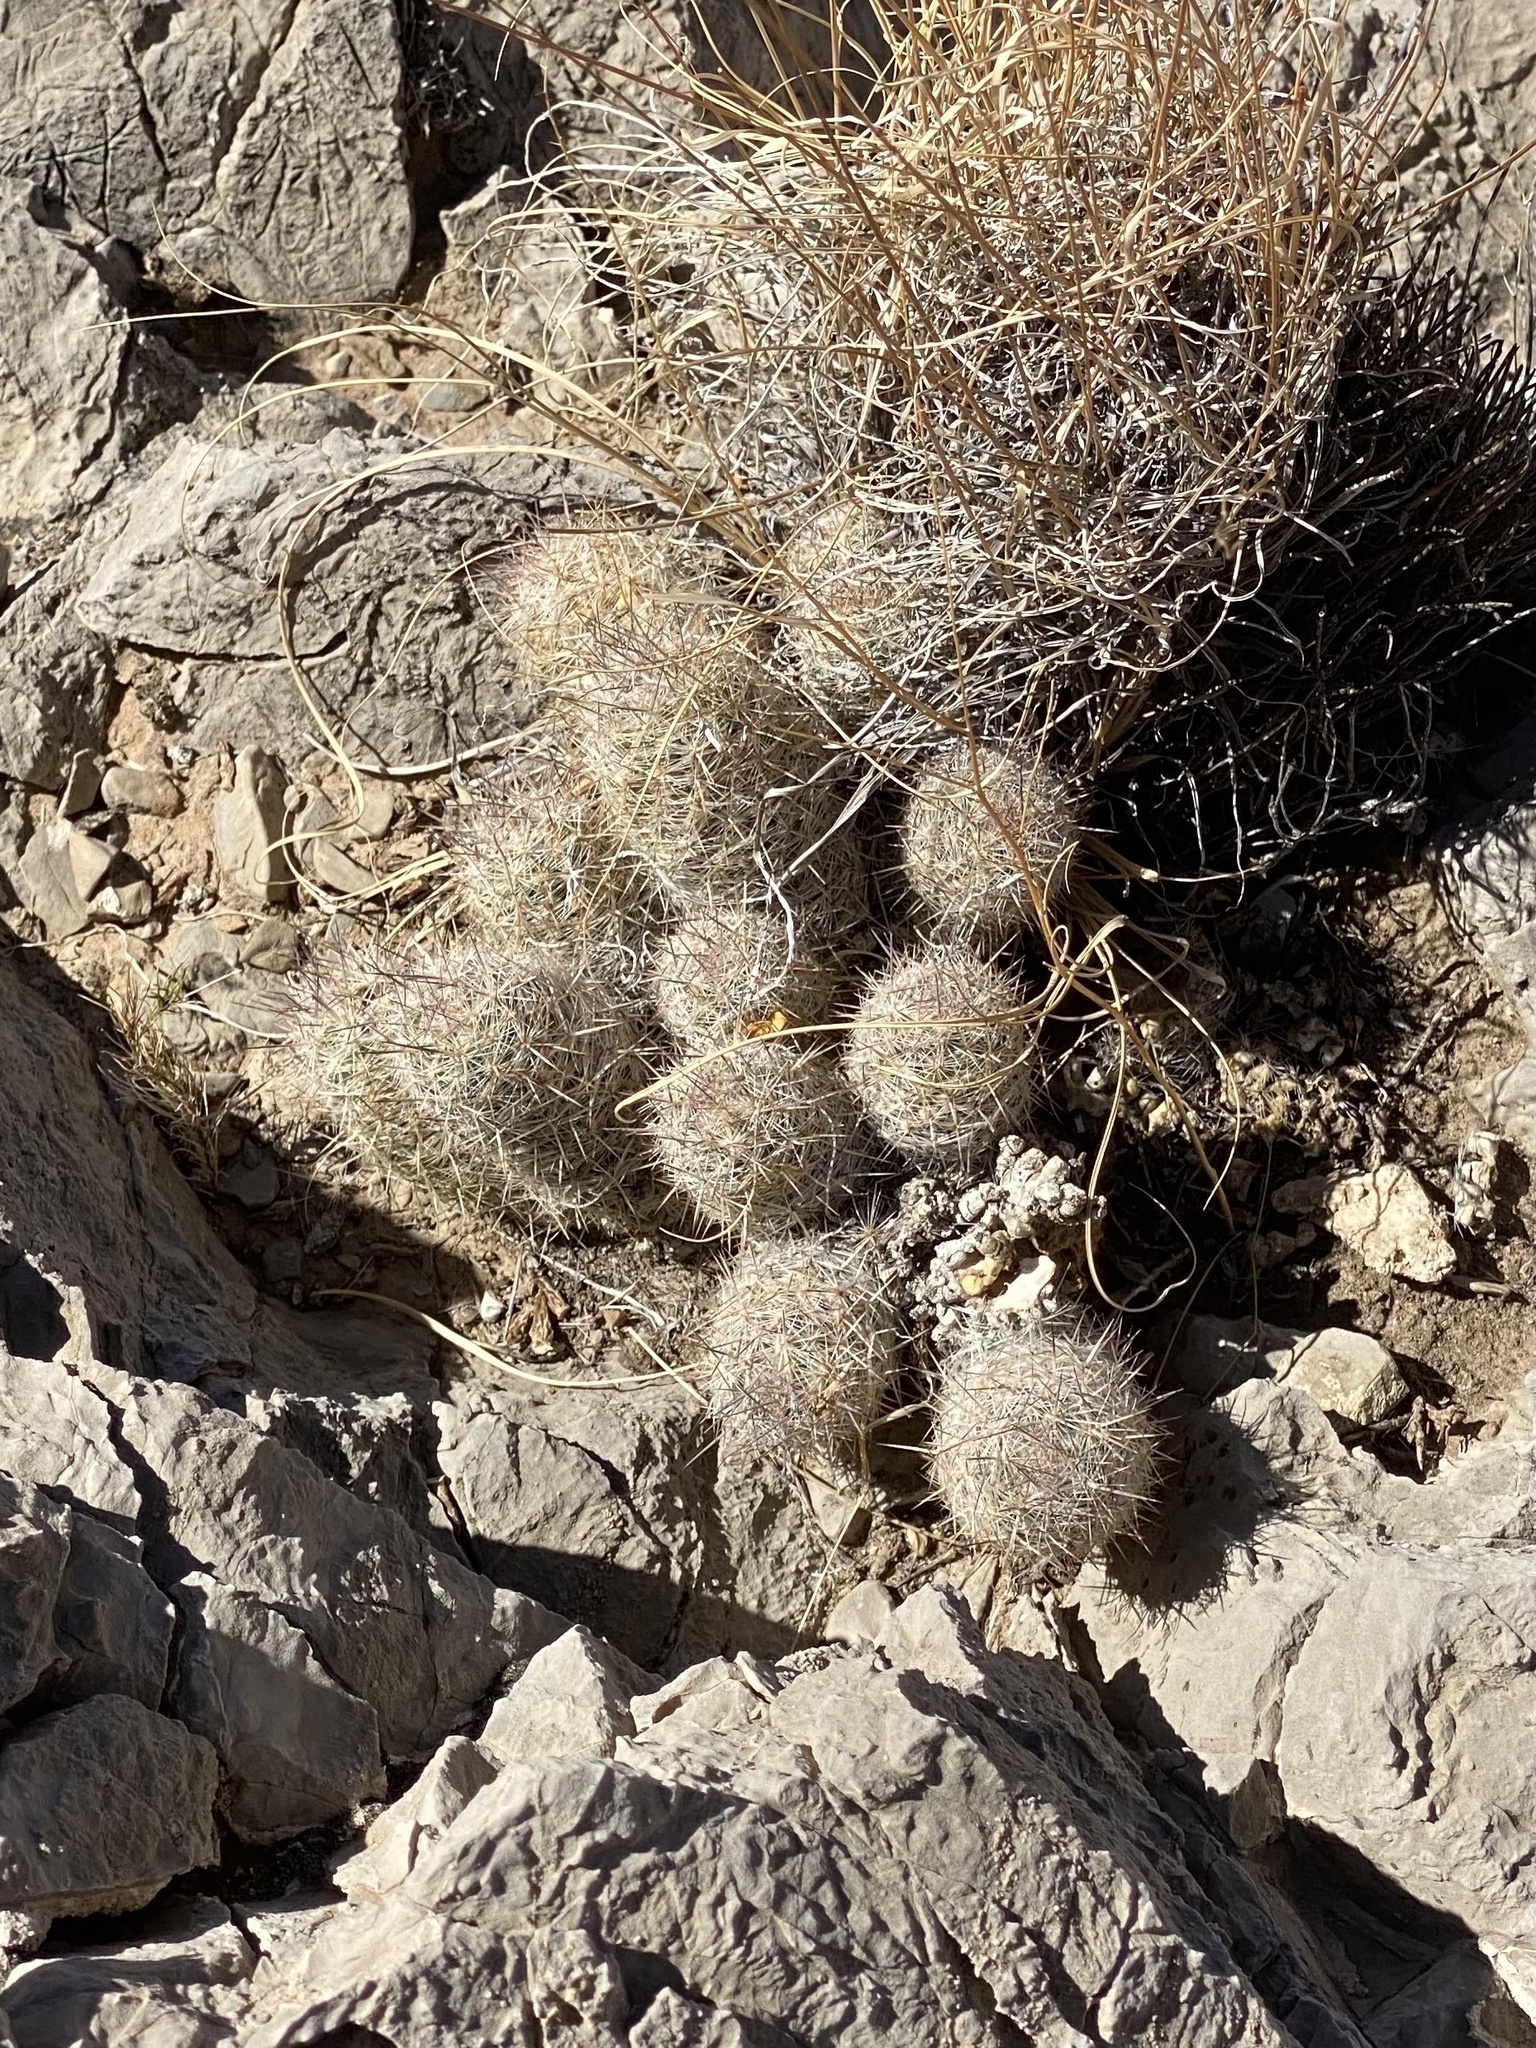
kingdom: Plantae
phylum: Tracheophyta
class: Magnoliopsida
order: Caryophyllales
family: Cactaceae
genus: Pelecyphora
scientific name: Pelecyphora tuberculosa
